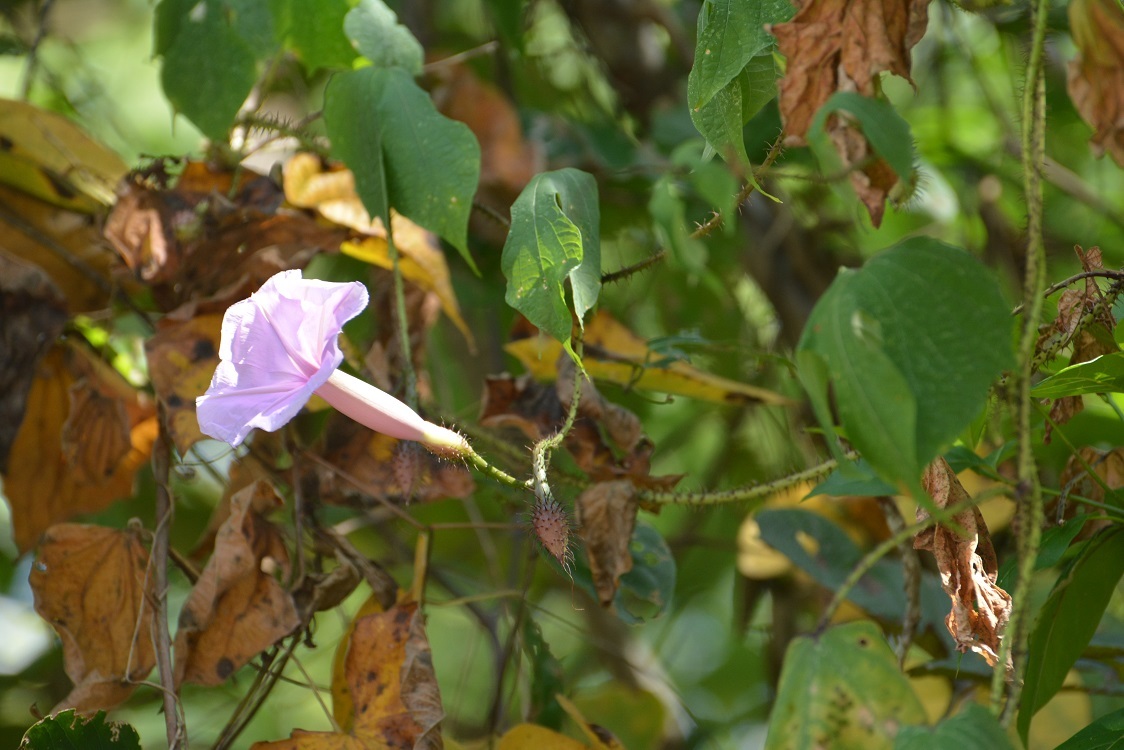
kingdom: Plantae
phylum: Tracheophyta
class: Magnoliopsida
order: Solanales
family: Convolvulaceae
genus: Ipomoea
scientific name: Ipomoea setosa
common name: Brazilian morning-glory
